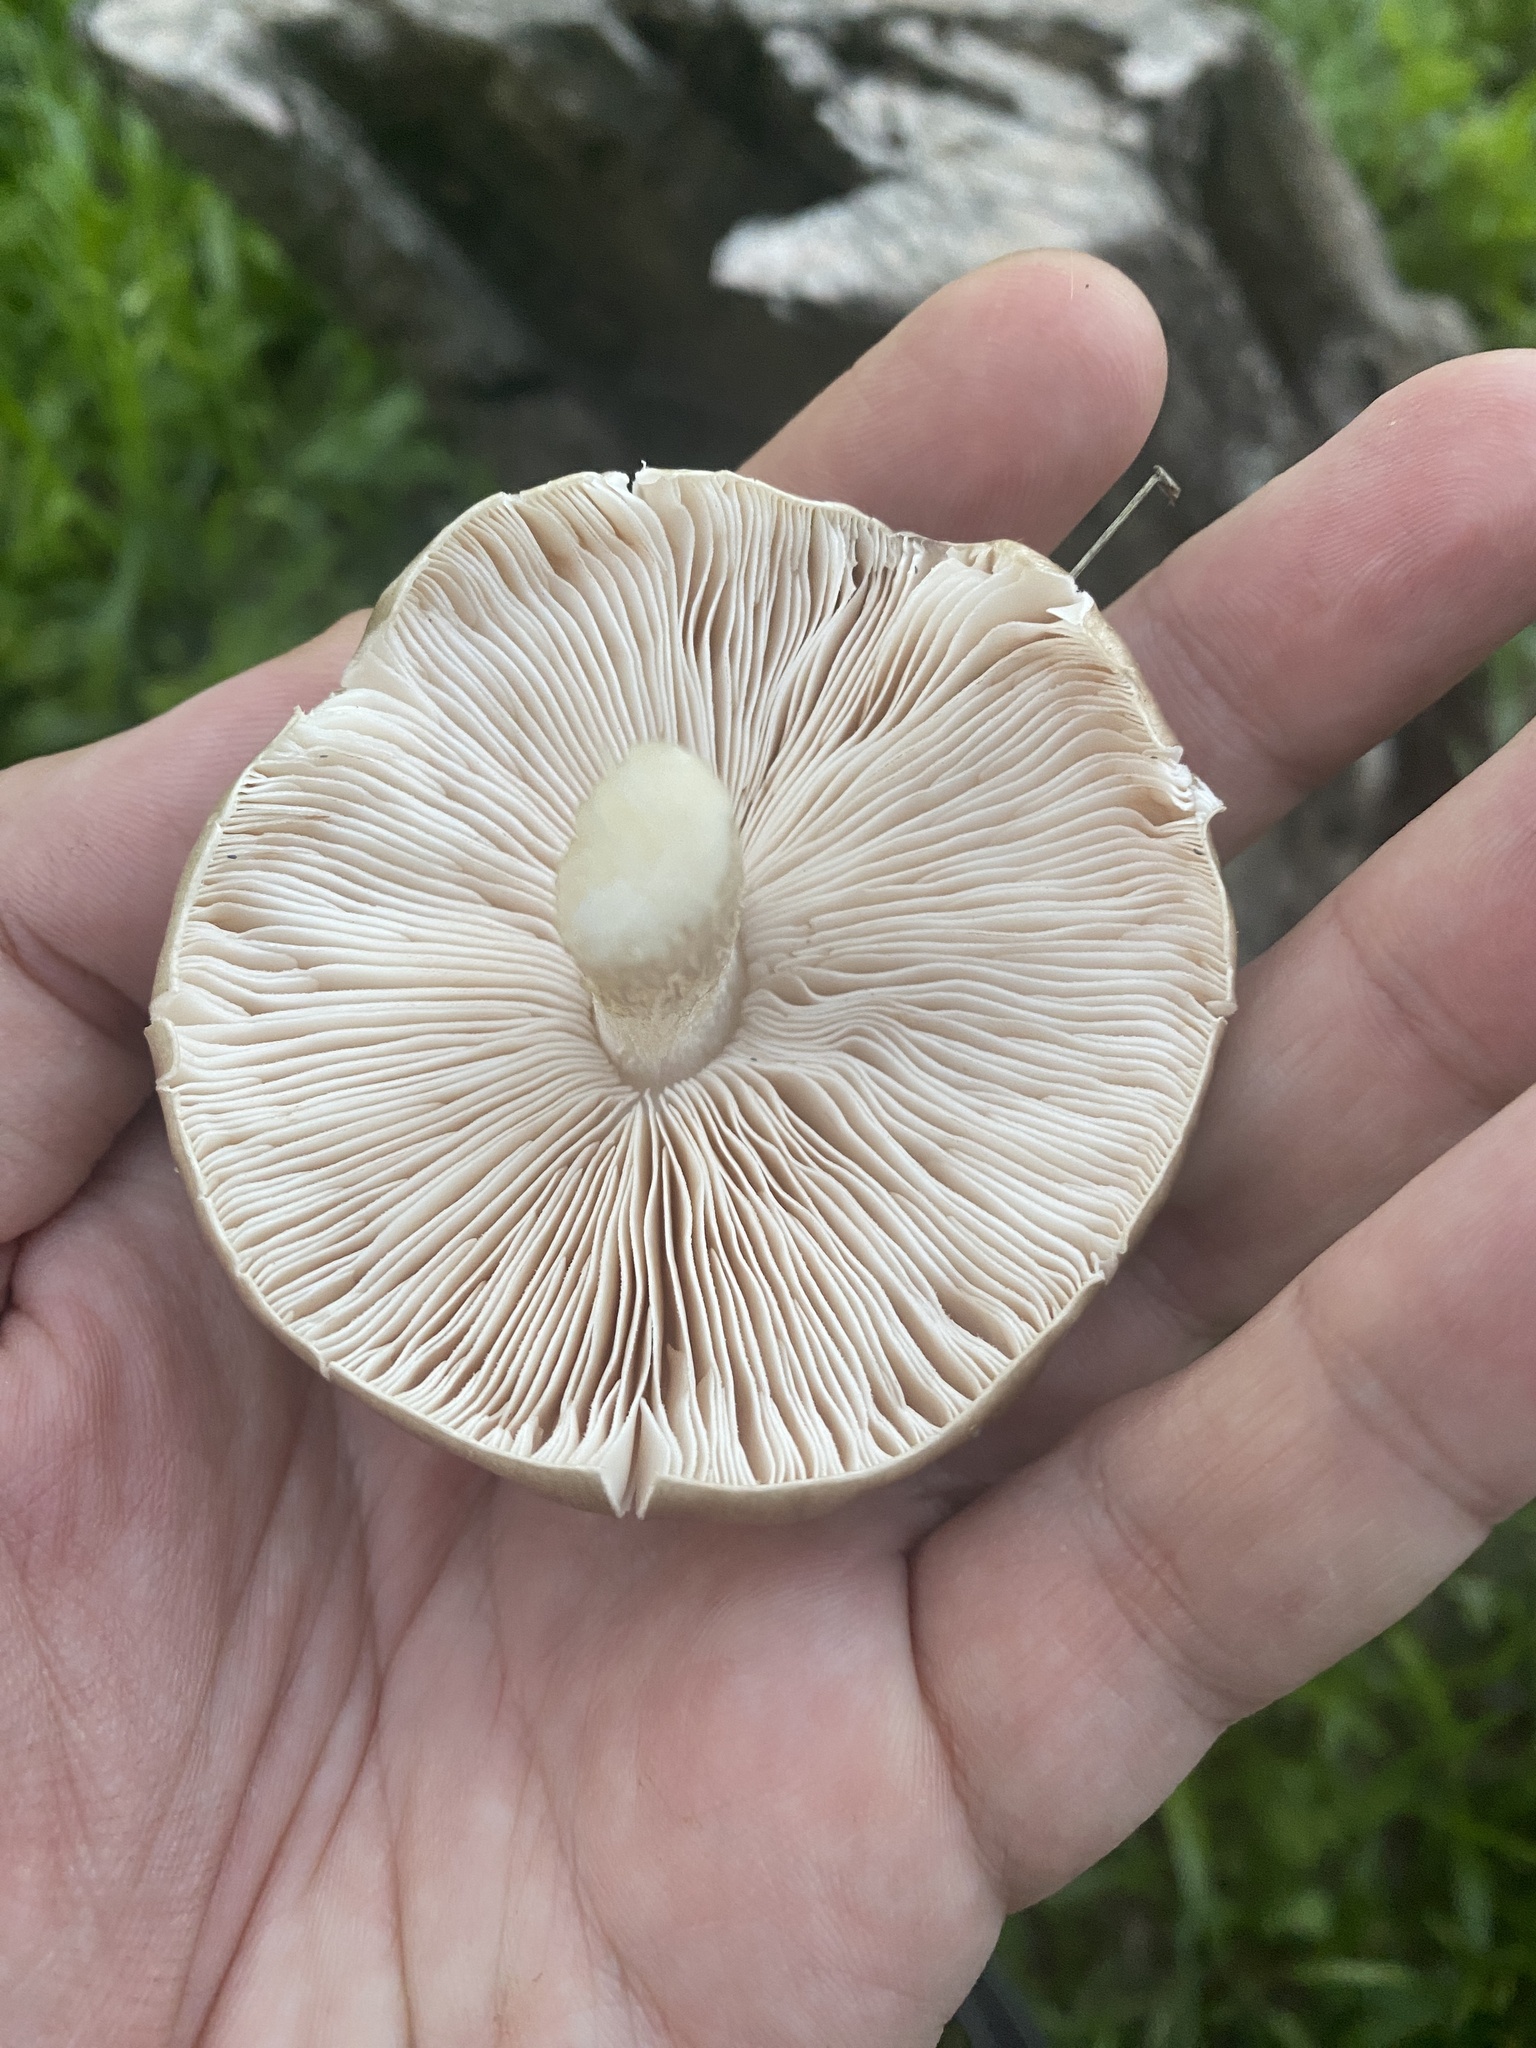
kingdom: Fungi
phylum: Basidiomycota
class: Agaricomycetes
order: Agaricales
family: Psathyrellaceae
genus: Candolleomyces
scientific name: Candolleomyces candolleanus
